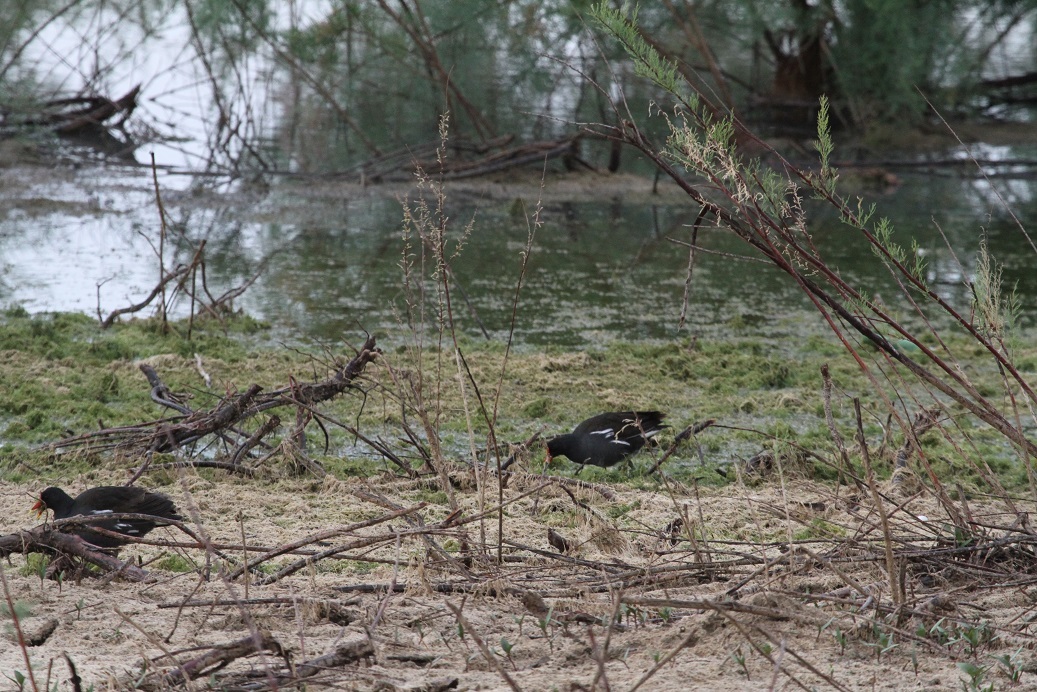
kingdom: Animalia
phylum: Chordata
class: Aves
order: Gruiformes
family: Rallidae
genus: Gallinula
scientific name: Gallinula chloropus
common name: Common moorhen
